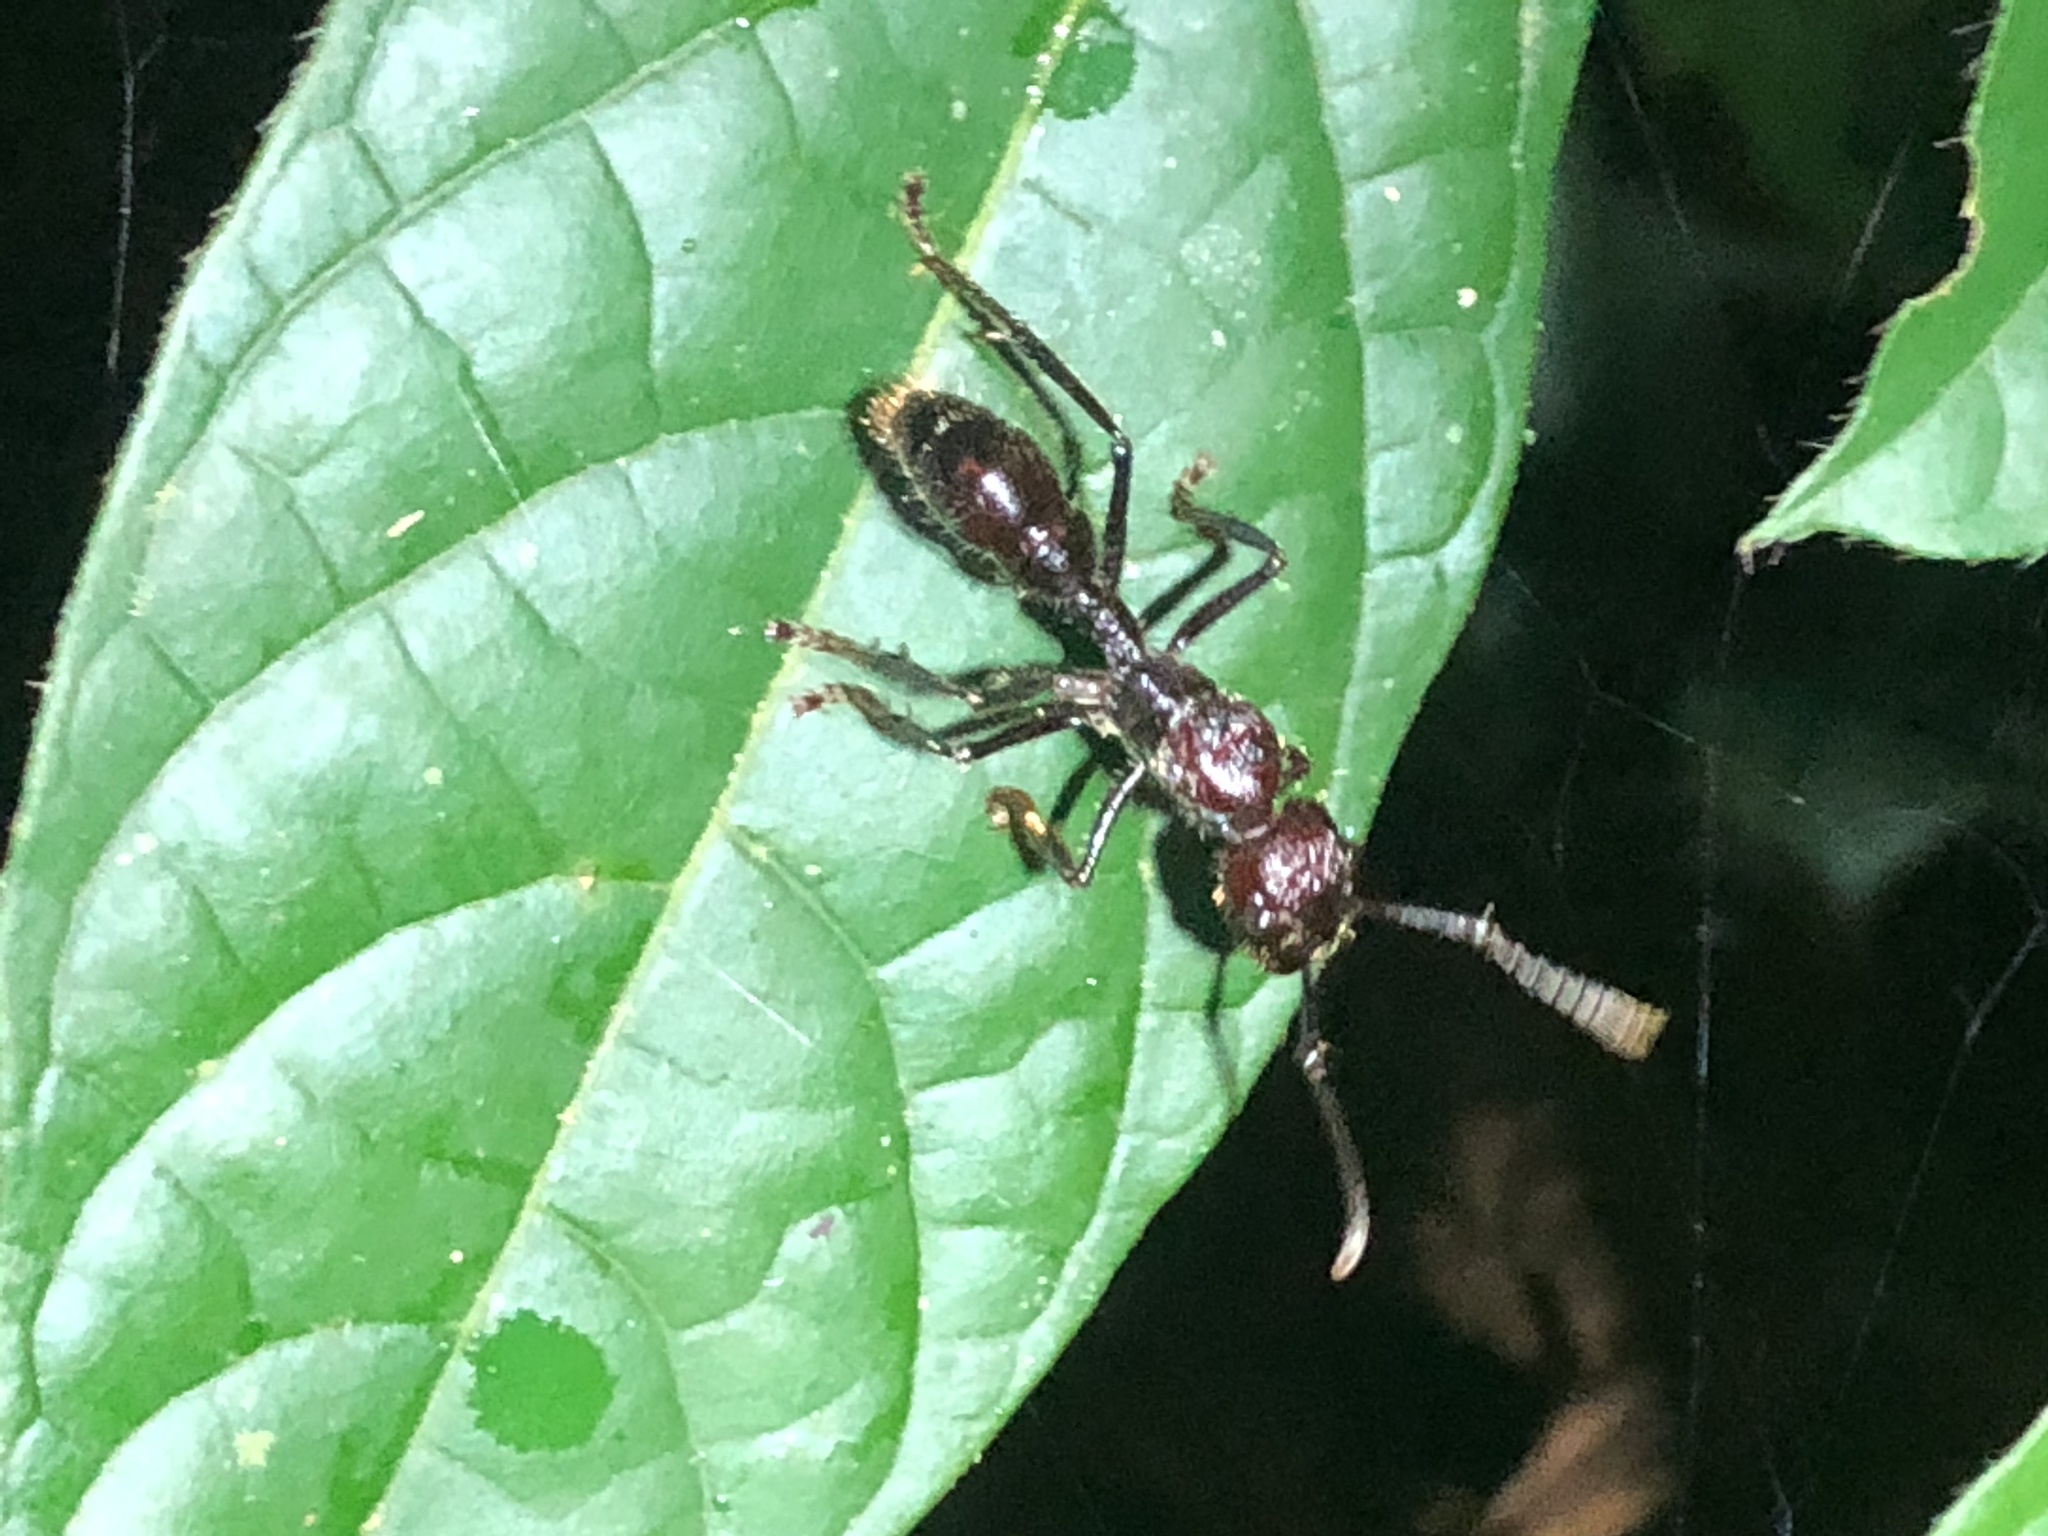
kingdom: Animalia
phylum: Arthropoda
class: Insecta
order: Hymenoptera
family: Formicidae
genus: Paraponera
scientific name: Paraponera clavata
